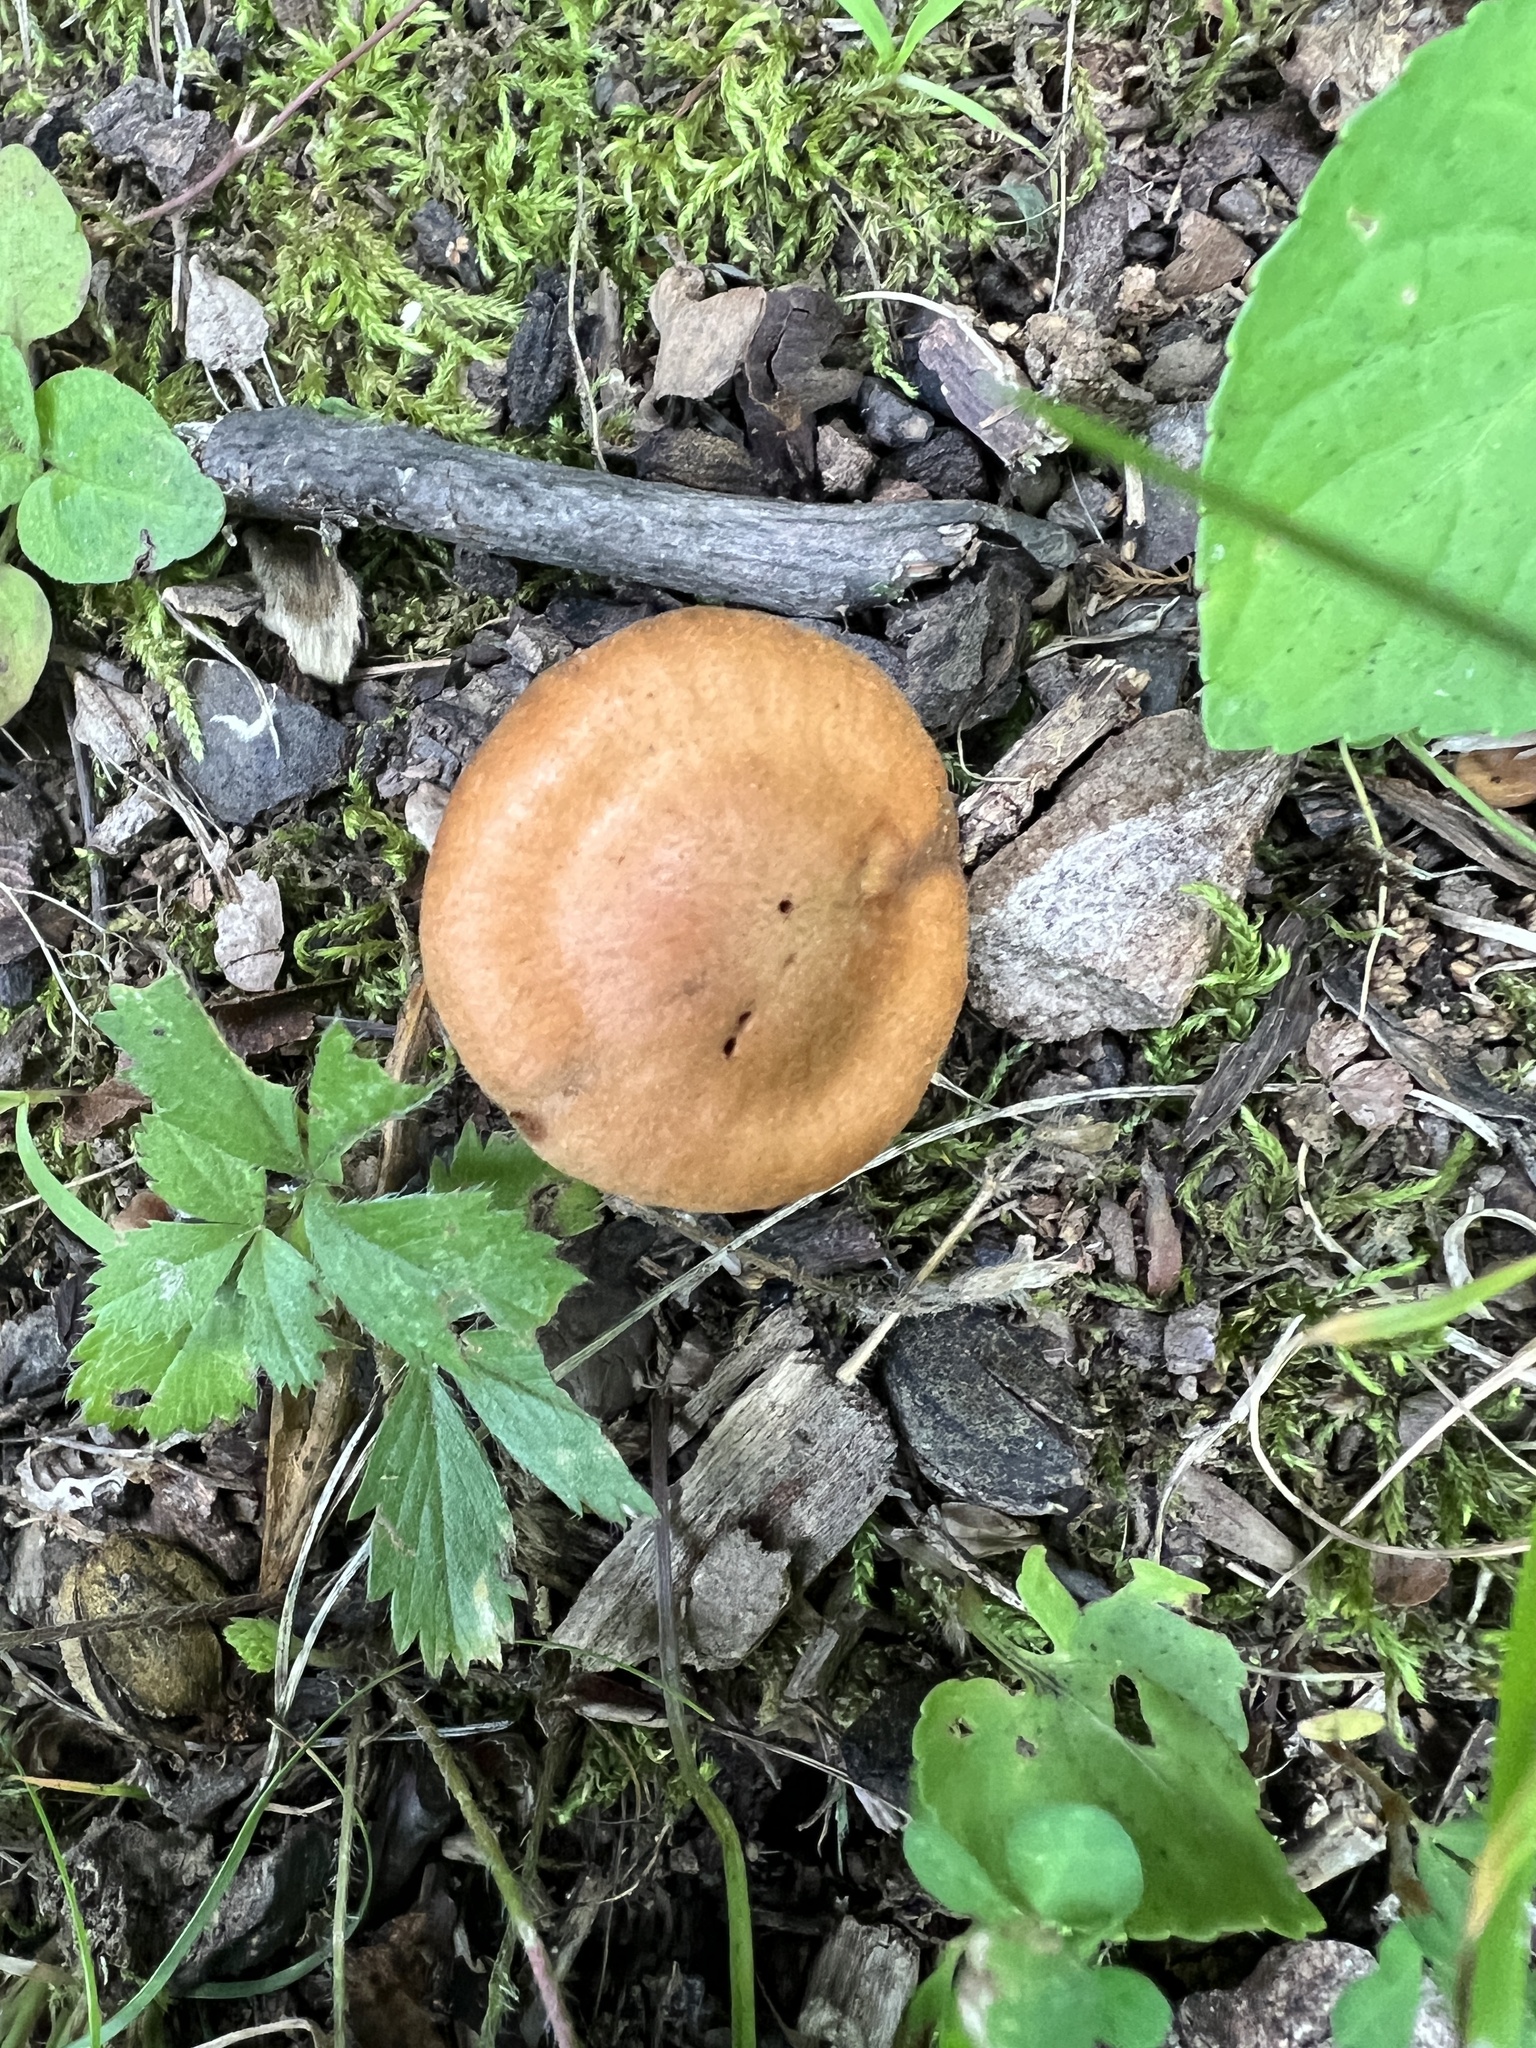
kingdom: Fungi
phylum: Basidiomycota
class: Agaricomycetes
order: Agaricales
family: Cortinariaceae
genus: Cortinarius
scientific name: Cortinarius
